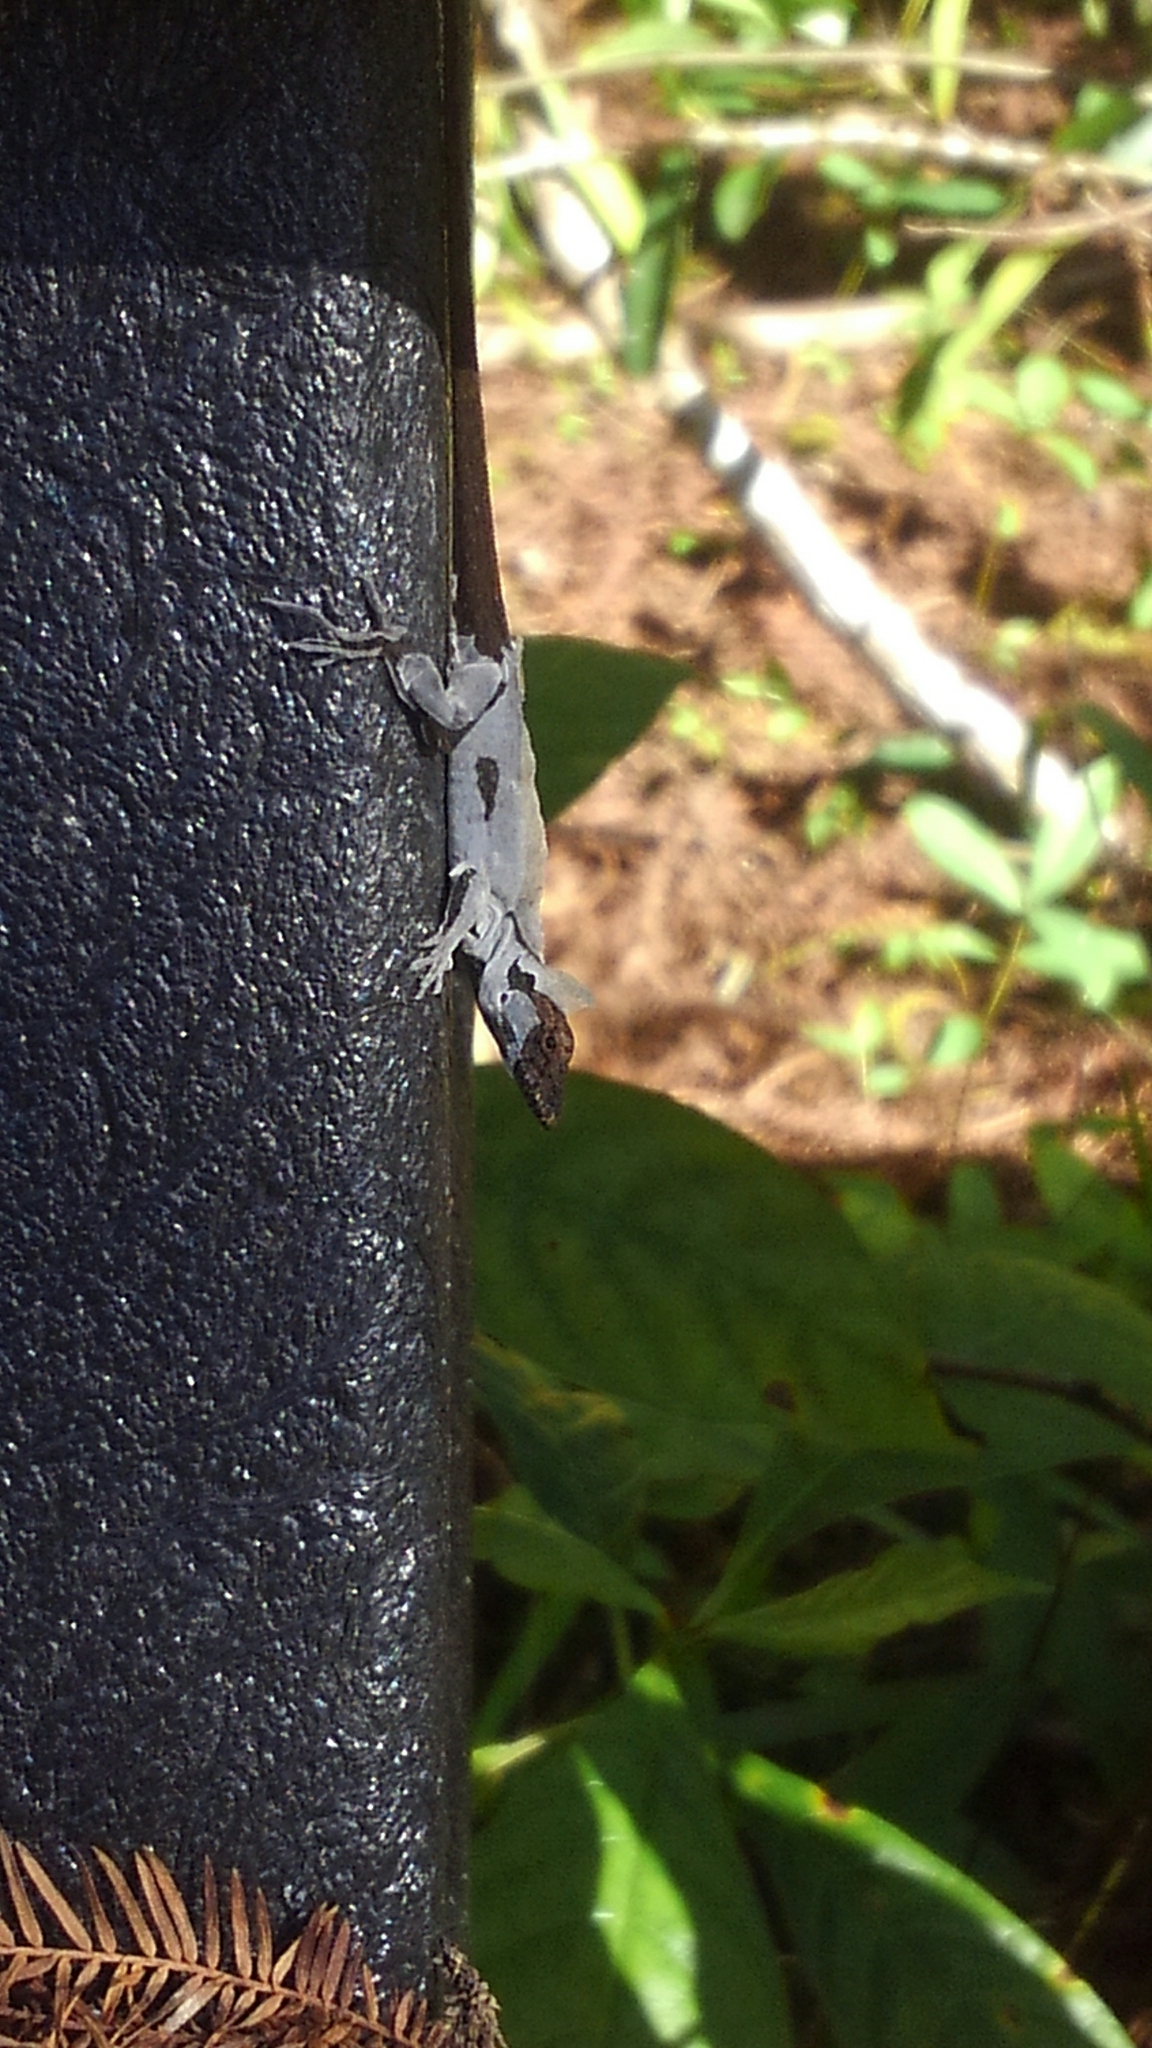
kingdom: Animalia
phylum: Chordata
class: Squamata
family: Dactyloidae
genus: Anolis
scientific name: Anolis sagrei
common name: Brown anole
